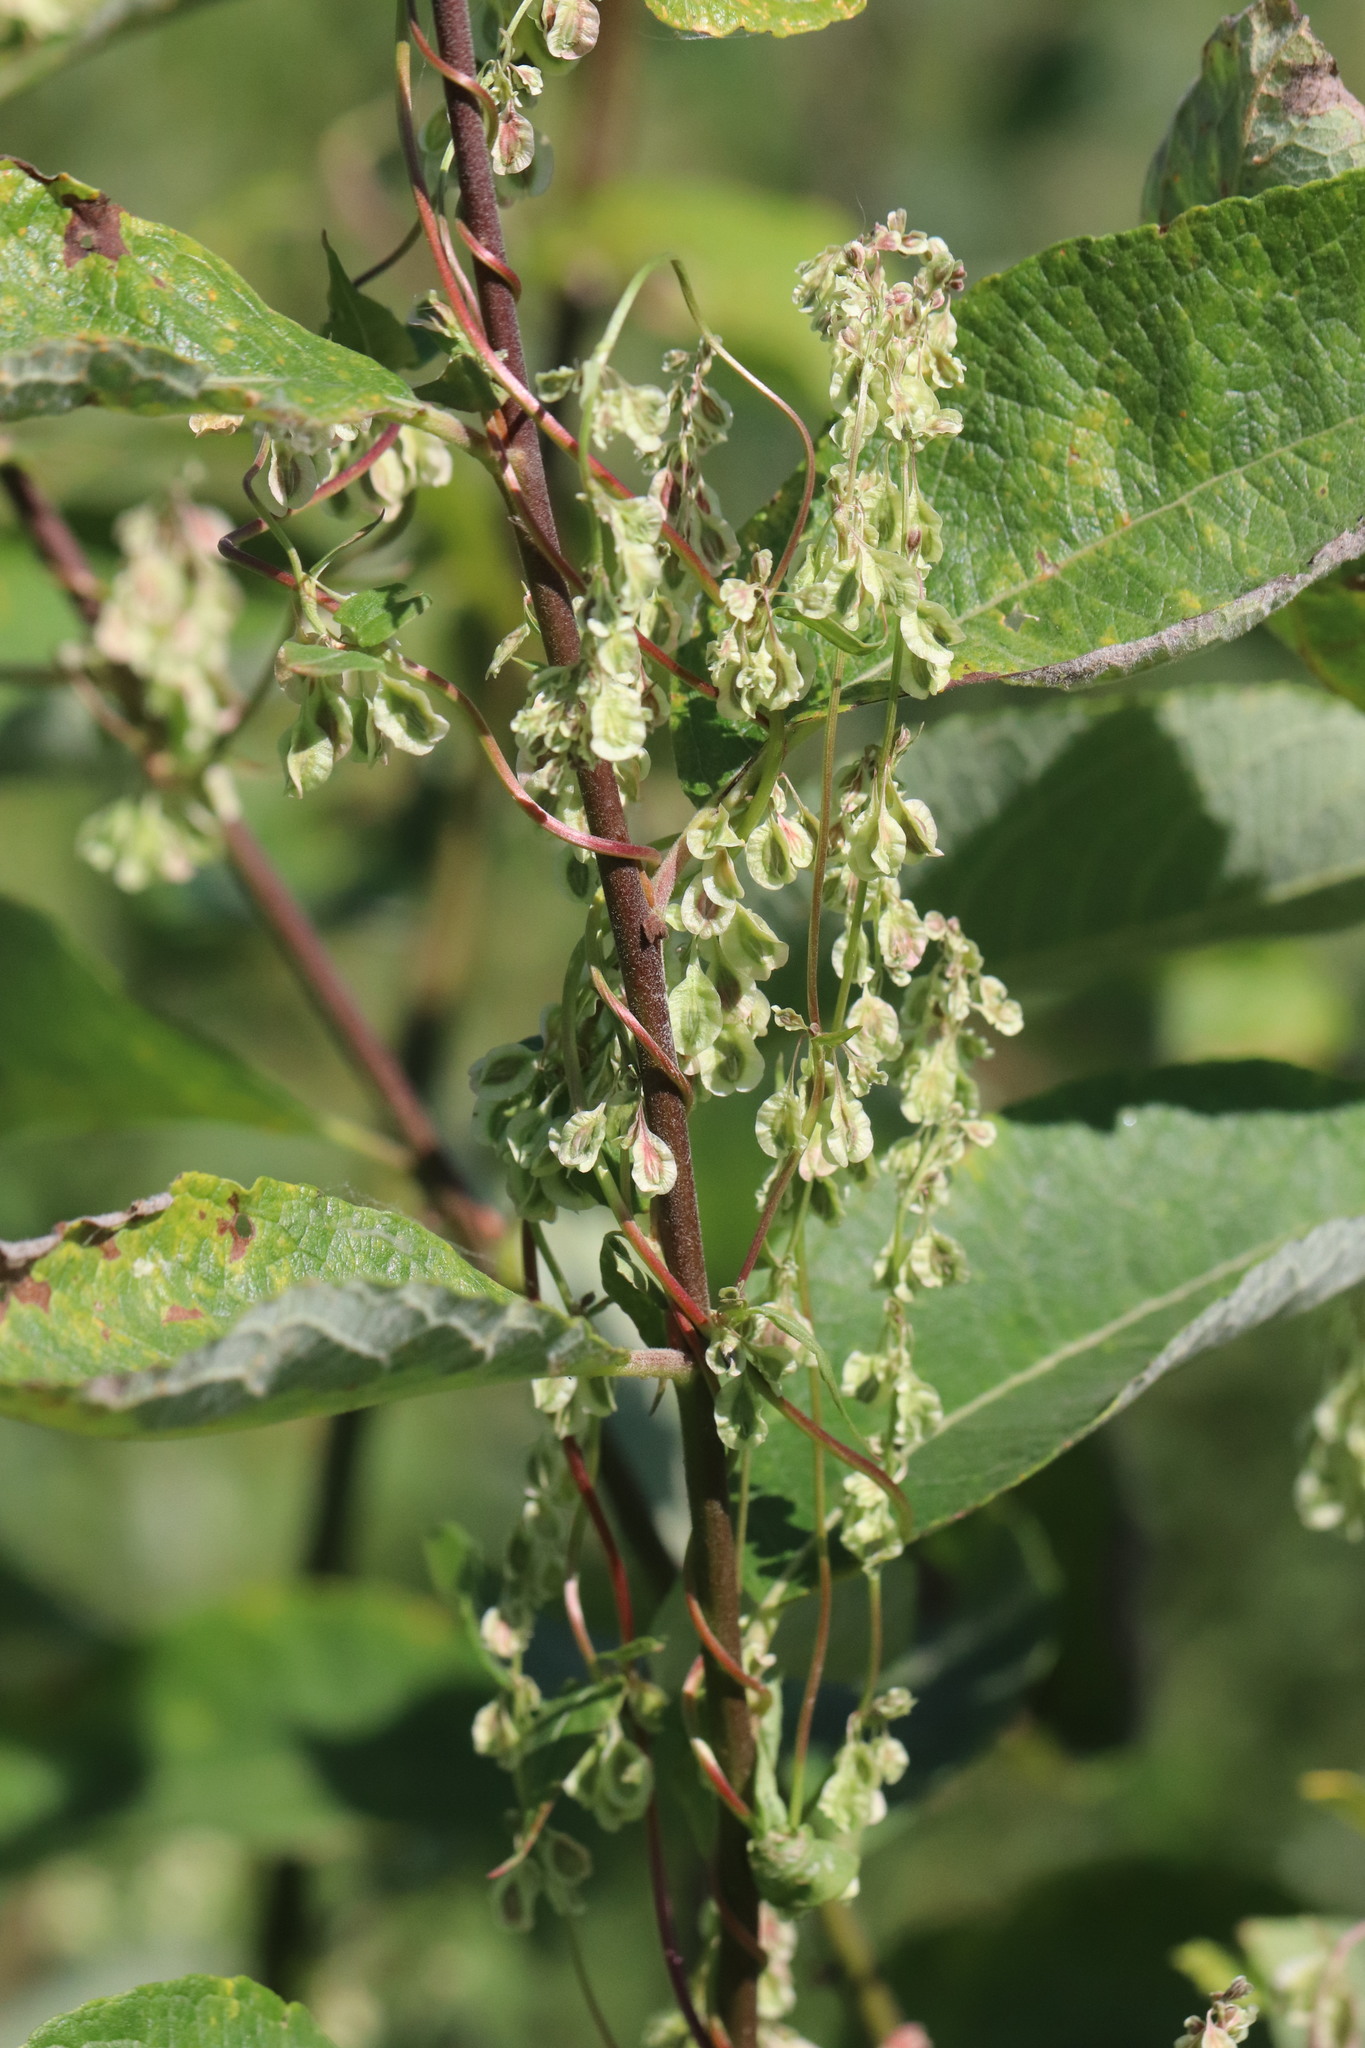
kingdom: Plantae
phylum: Tracheophyta
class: Magnoliopsida
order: Caryophyllales
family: Polygonaceae
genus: Fallopia
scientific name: Fallopia dumetorum
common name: Copse-bindweed
